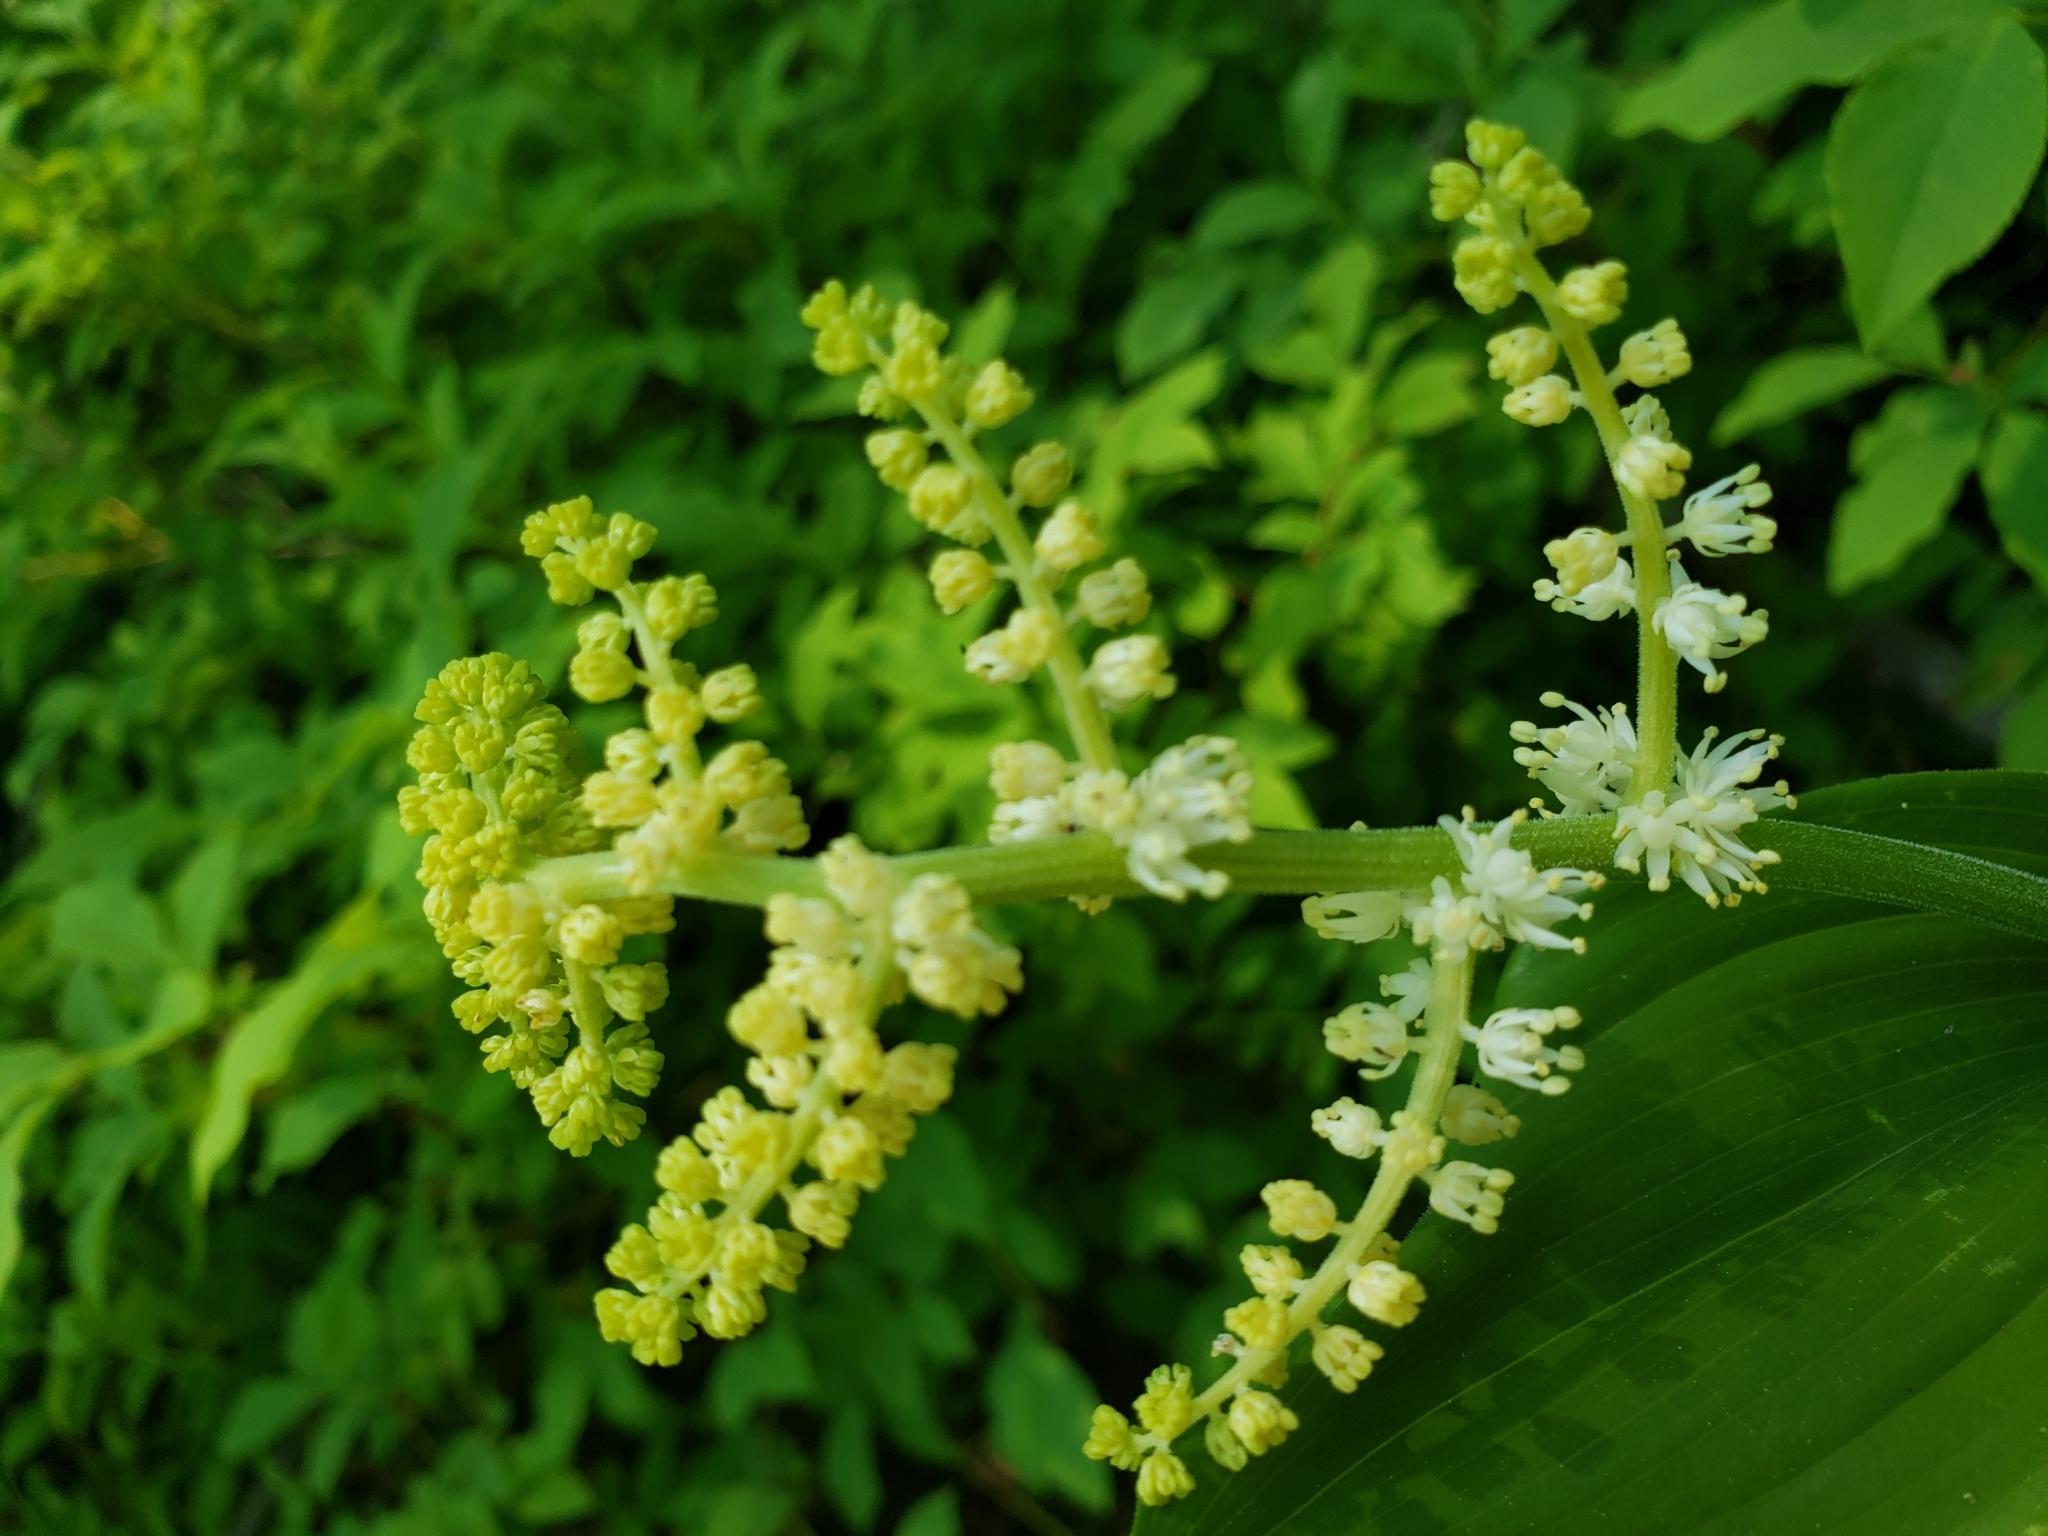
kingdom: Plantae
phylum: Tracheophyta
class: Liliopsida
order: Asparagales
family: Asparagaceae
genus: Maianthemum
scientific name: Maianthemum racemosum
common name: False spikenard
